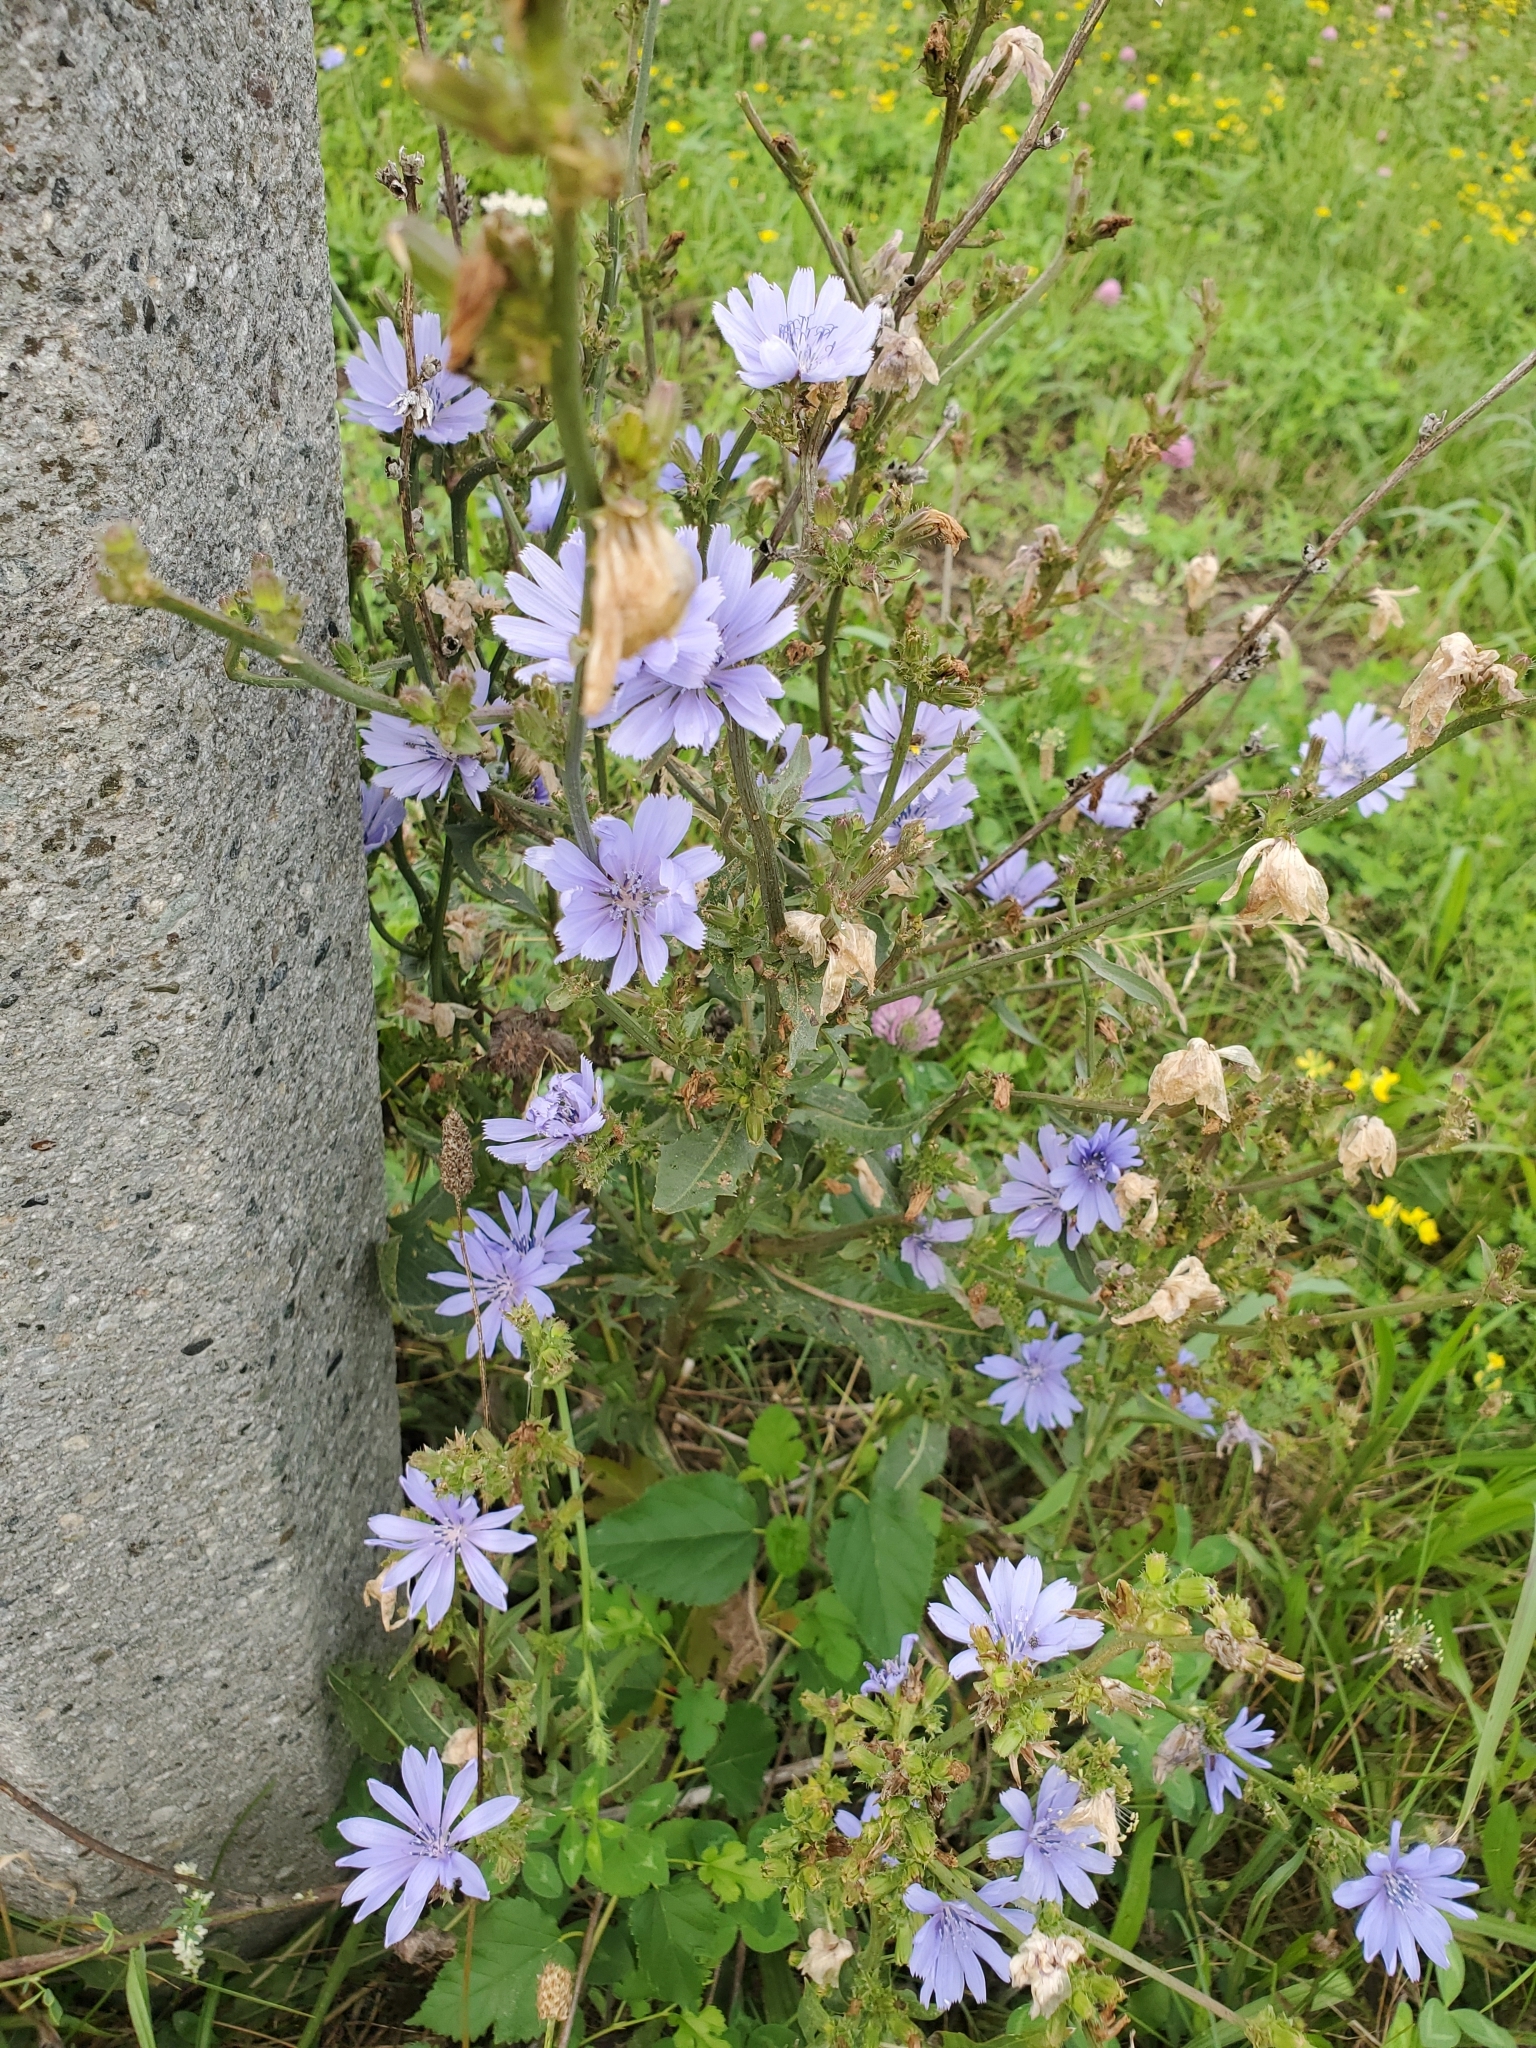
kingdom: Plantae
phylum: Tracheophyta
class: Magnoliopsida
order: Asterales
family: Asteraceae
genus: Cichorium
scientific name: Cichorium intybus
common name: Chicory
